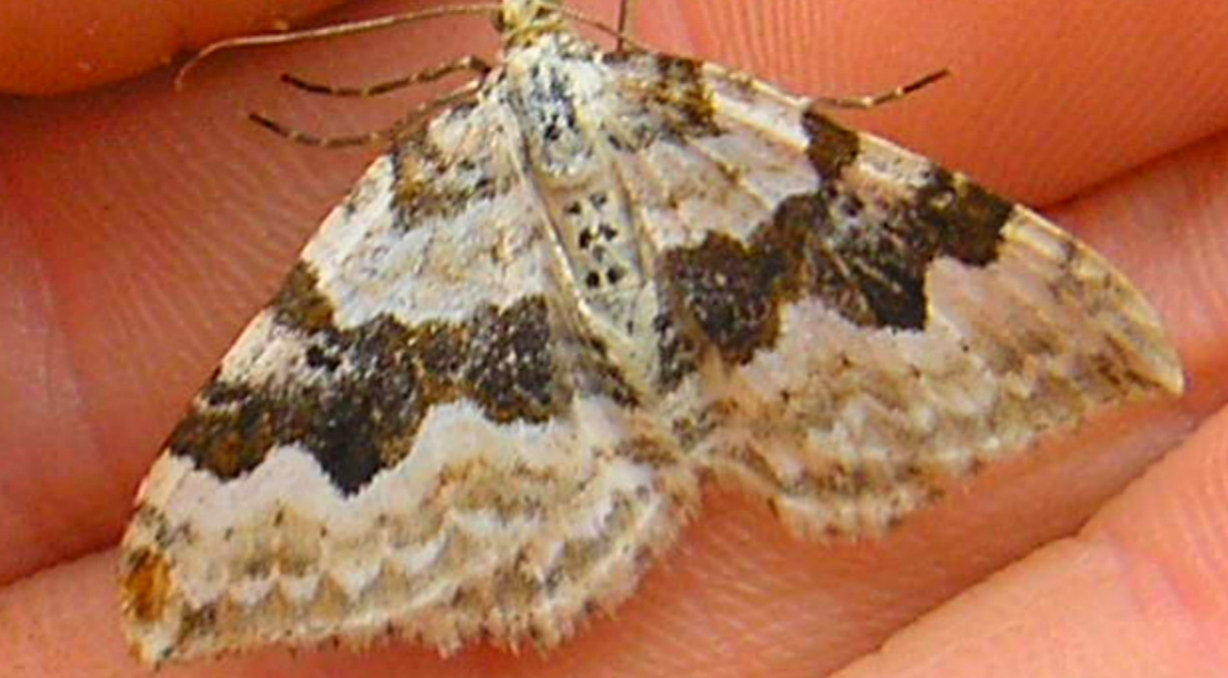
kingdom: Animalia
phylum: Arthropoda
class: Insecta
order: Lepidoptera
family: Geometridae
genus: Xanthorhoe
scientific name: Xanthorhoe montanata
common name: Silver-ground carpet
